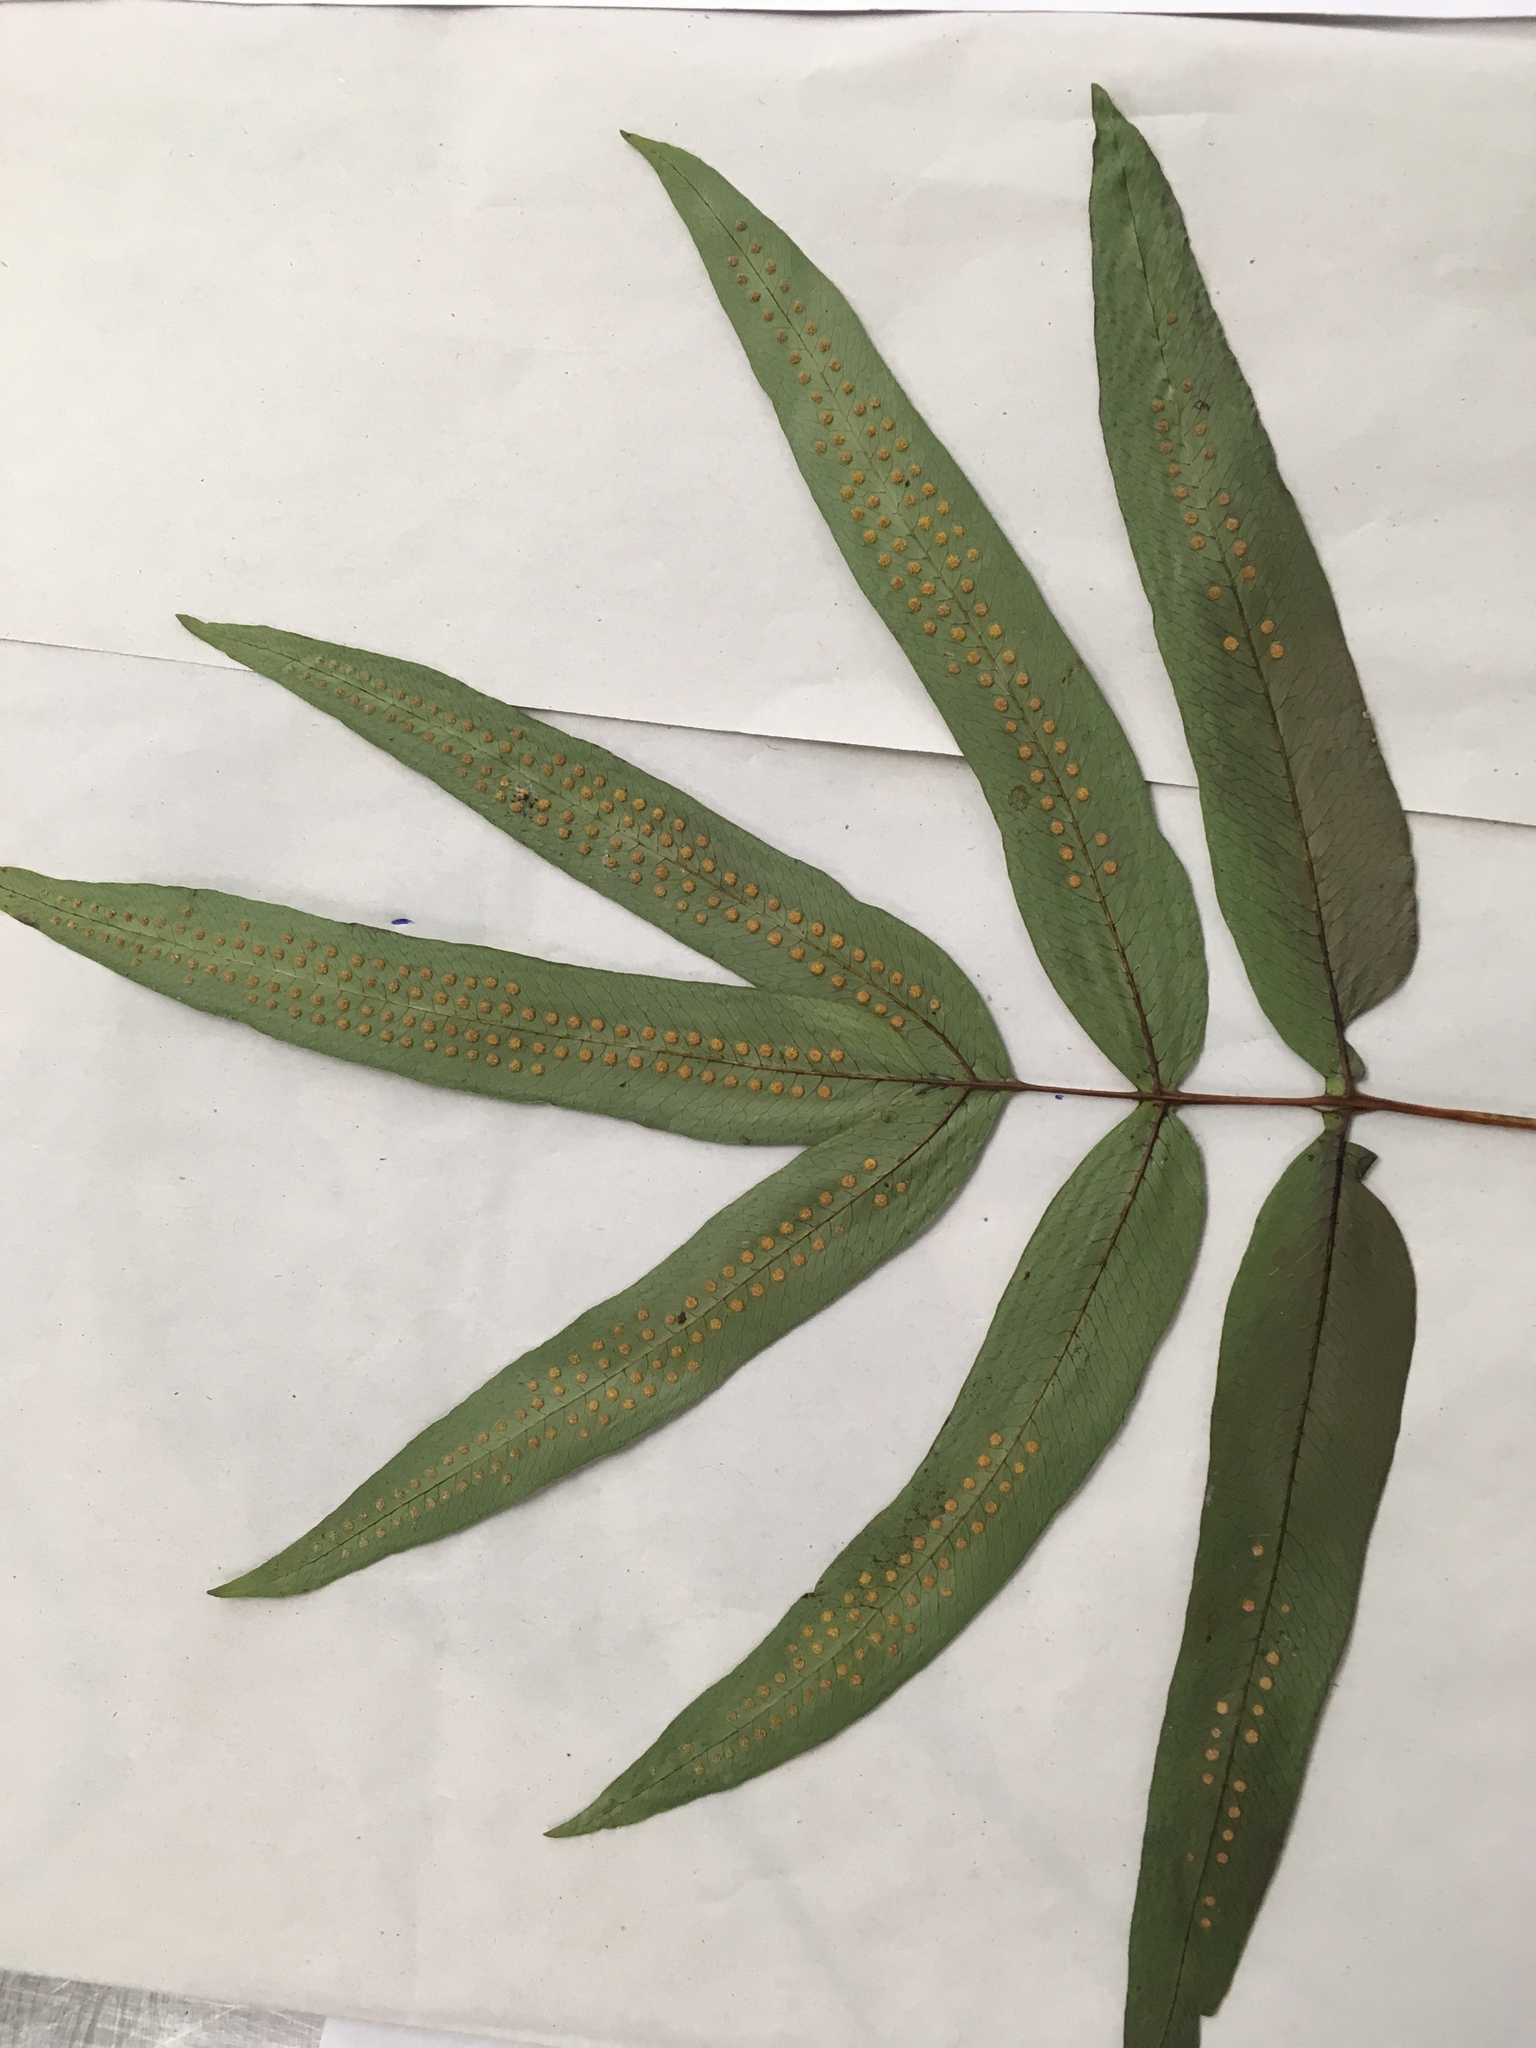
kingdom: Plantae
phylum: Tracheophyta
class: Polypodiopsida
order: Polypodiales
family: Polypodiaceae
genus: Serpocaulon
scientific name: Serpocaulon triseriale
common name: Angle-vein fern
